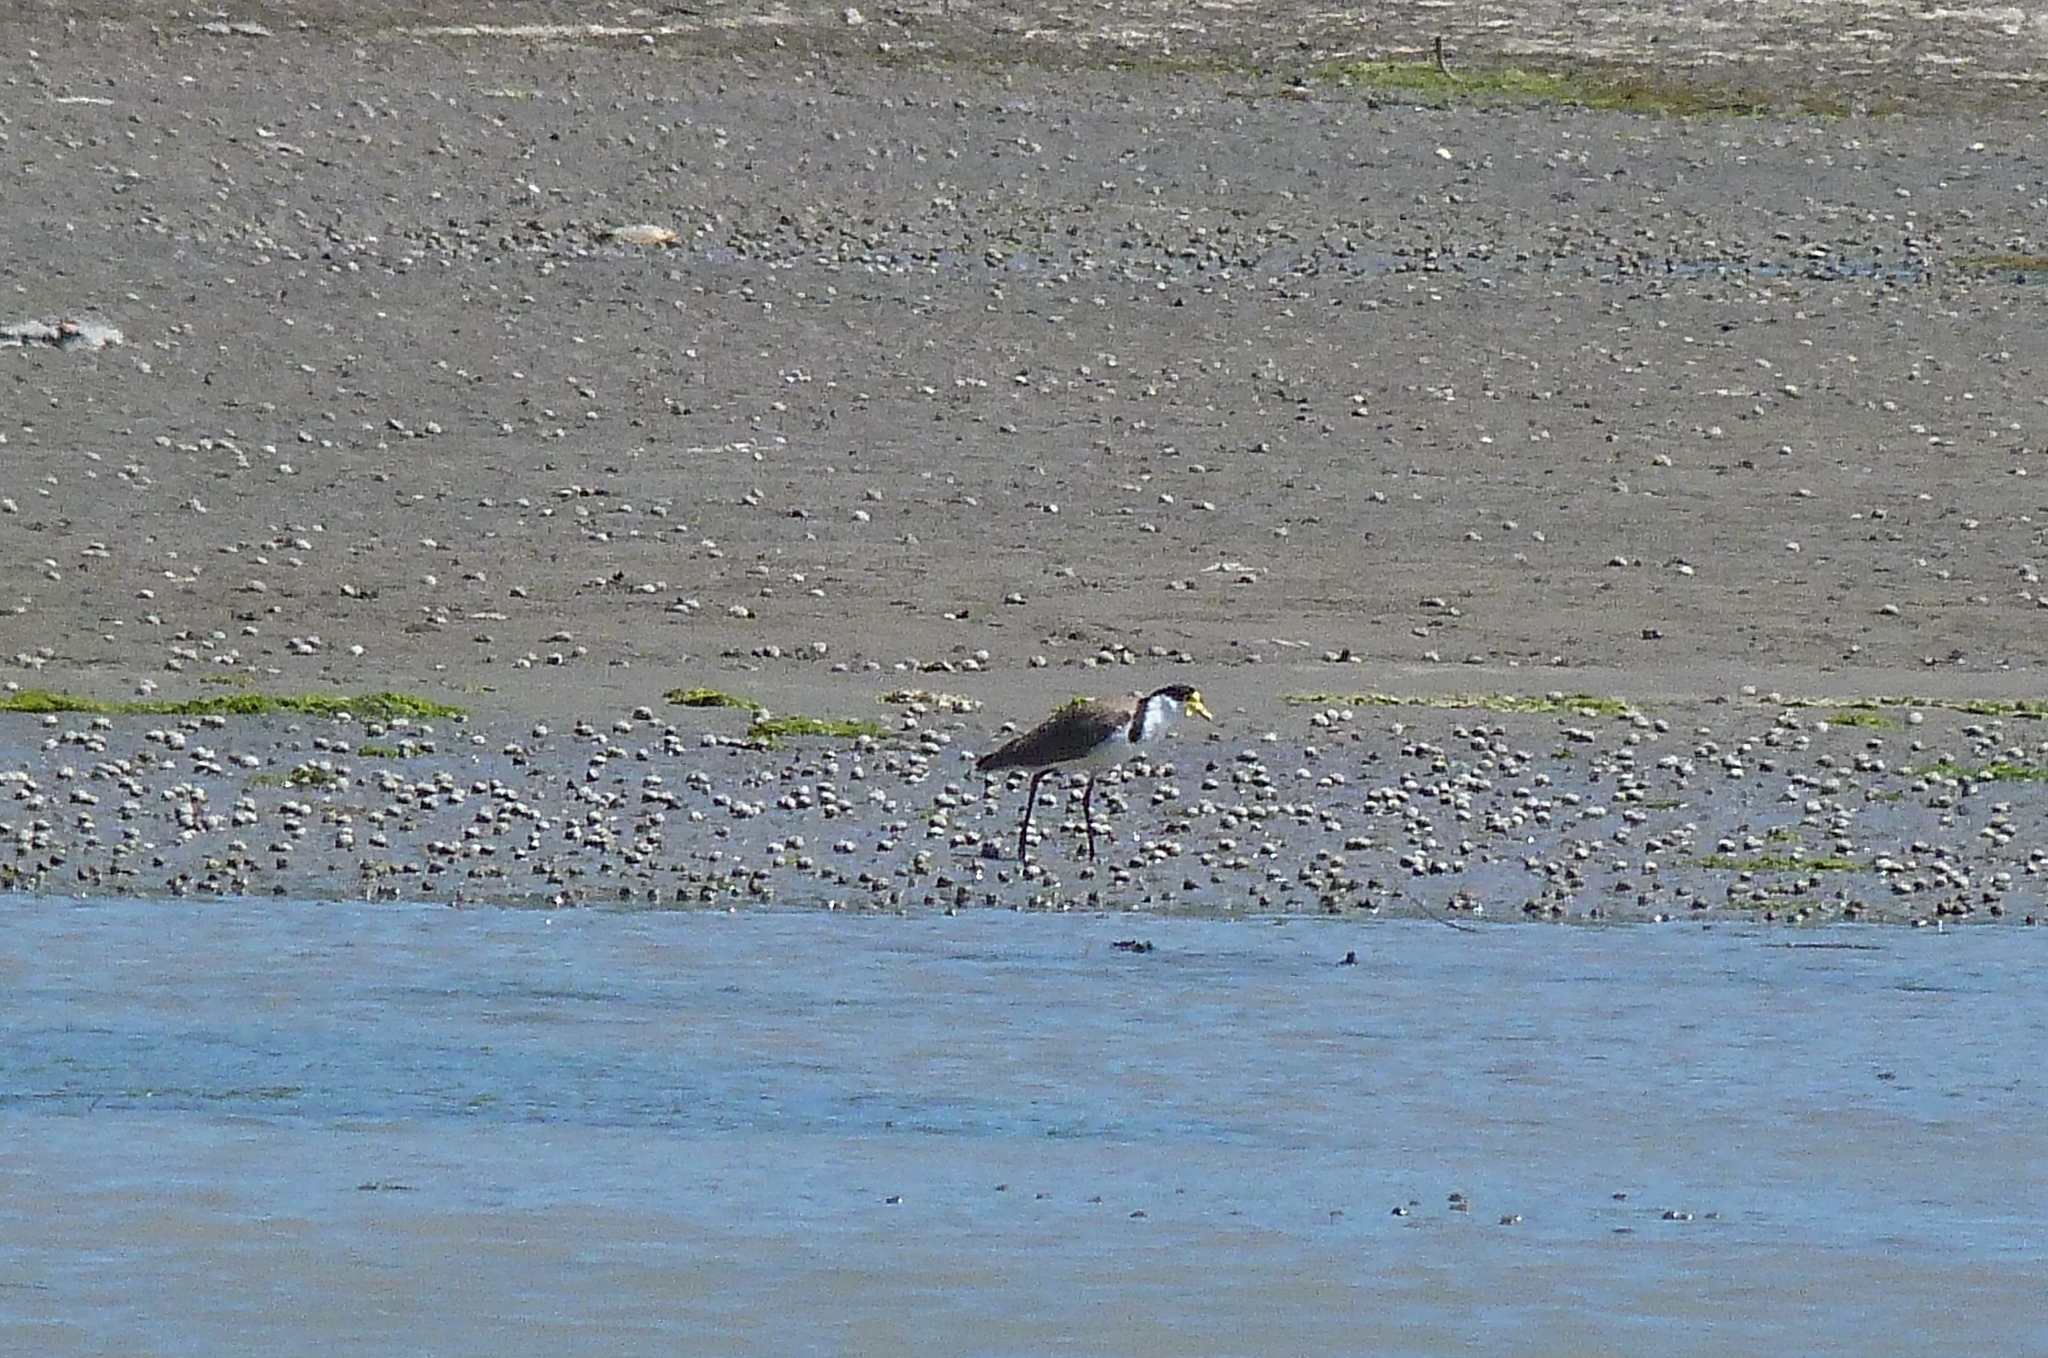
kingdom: Animalia
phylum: Chordata
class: Aves
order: Charadriiformes
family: Charadriidae
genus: Vanellus
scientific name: Vanellus miles
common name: Masked lapwing
